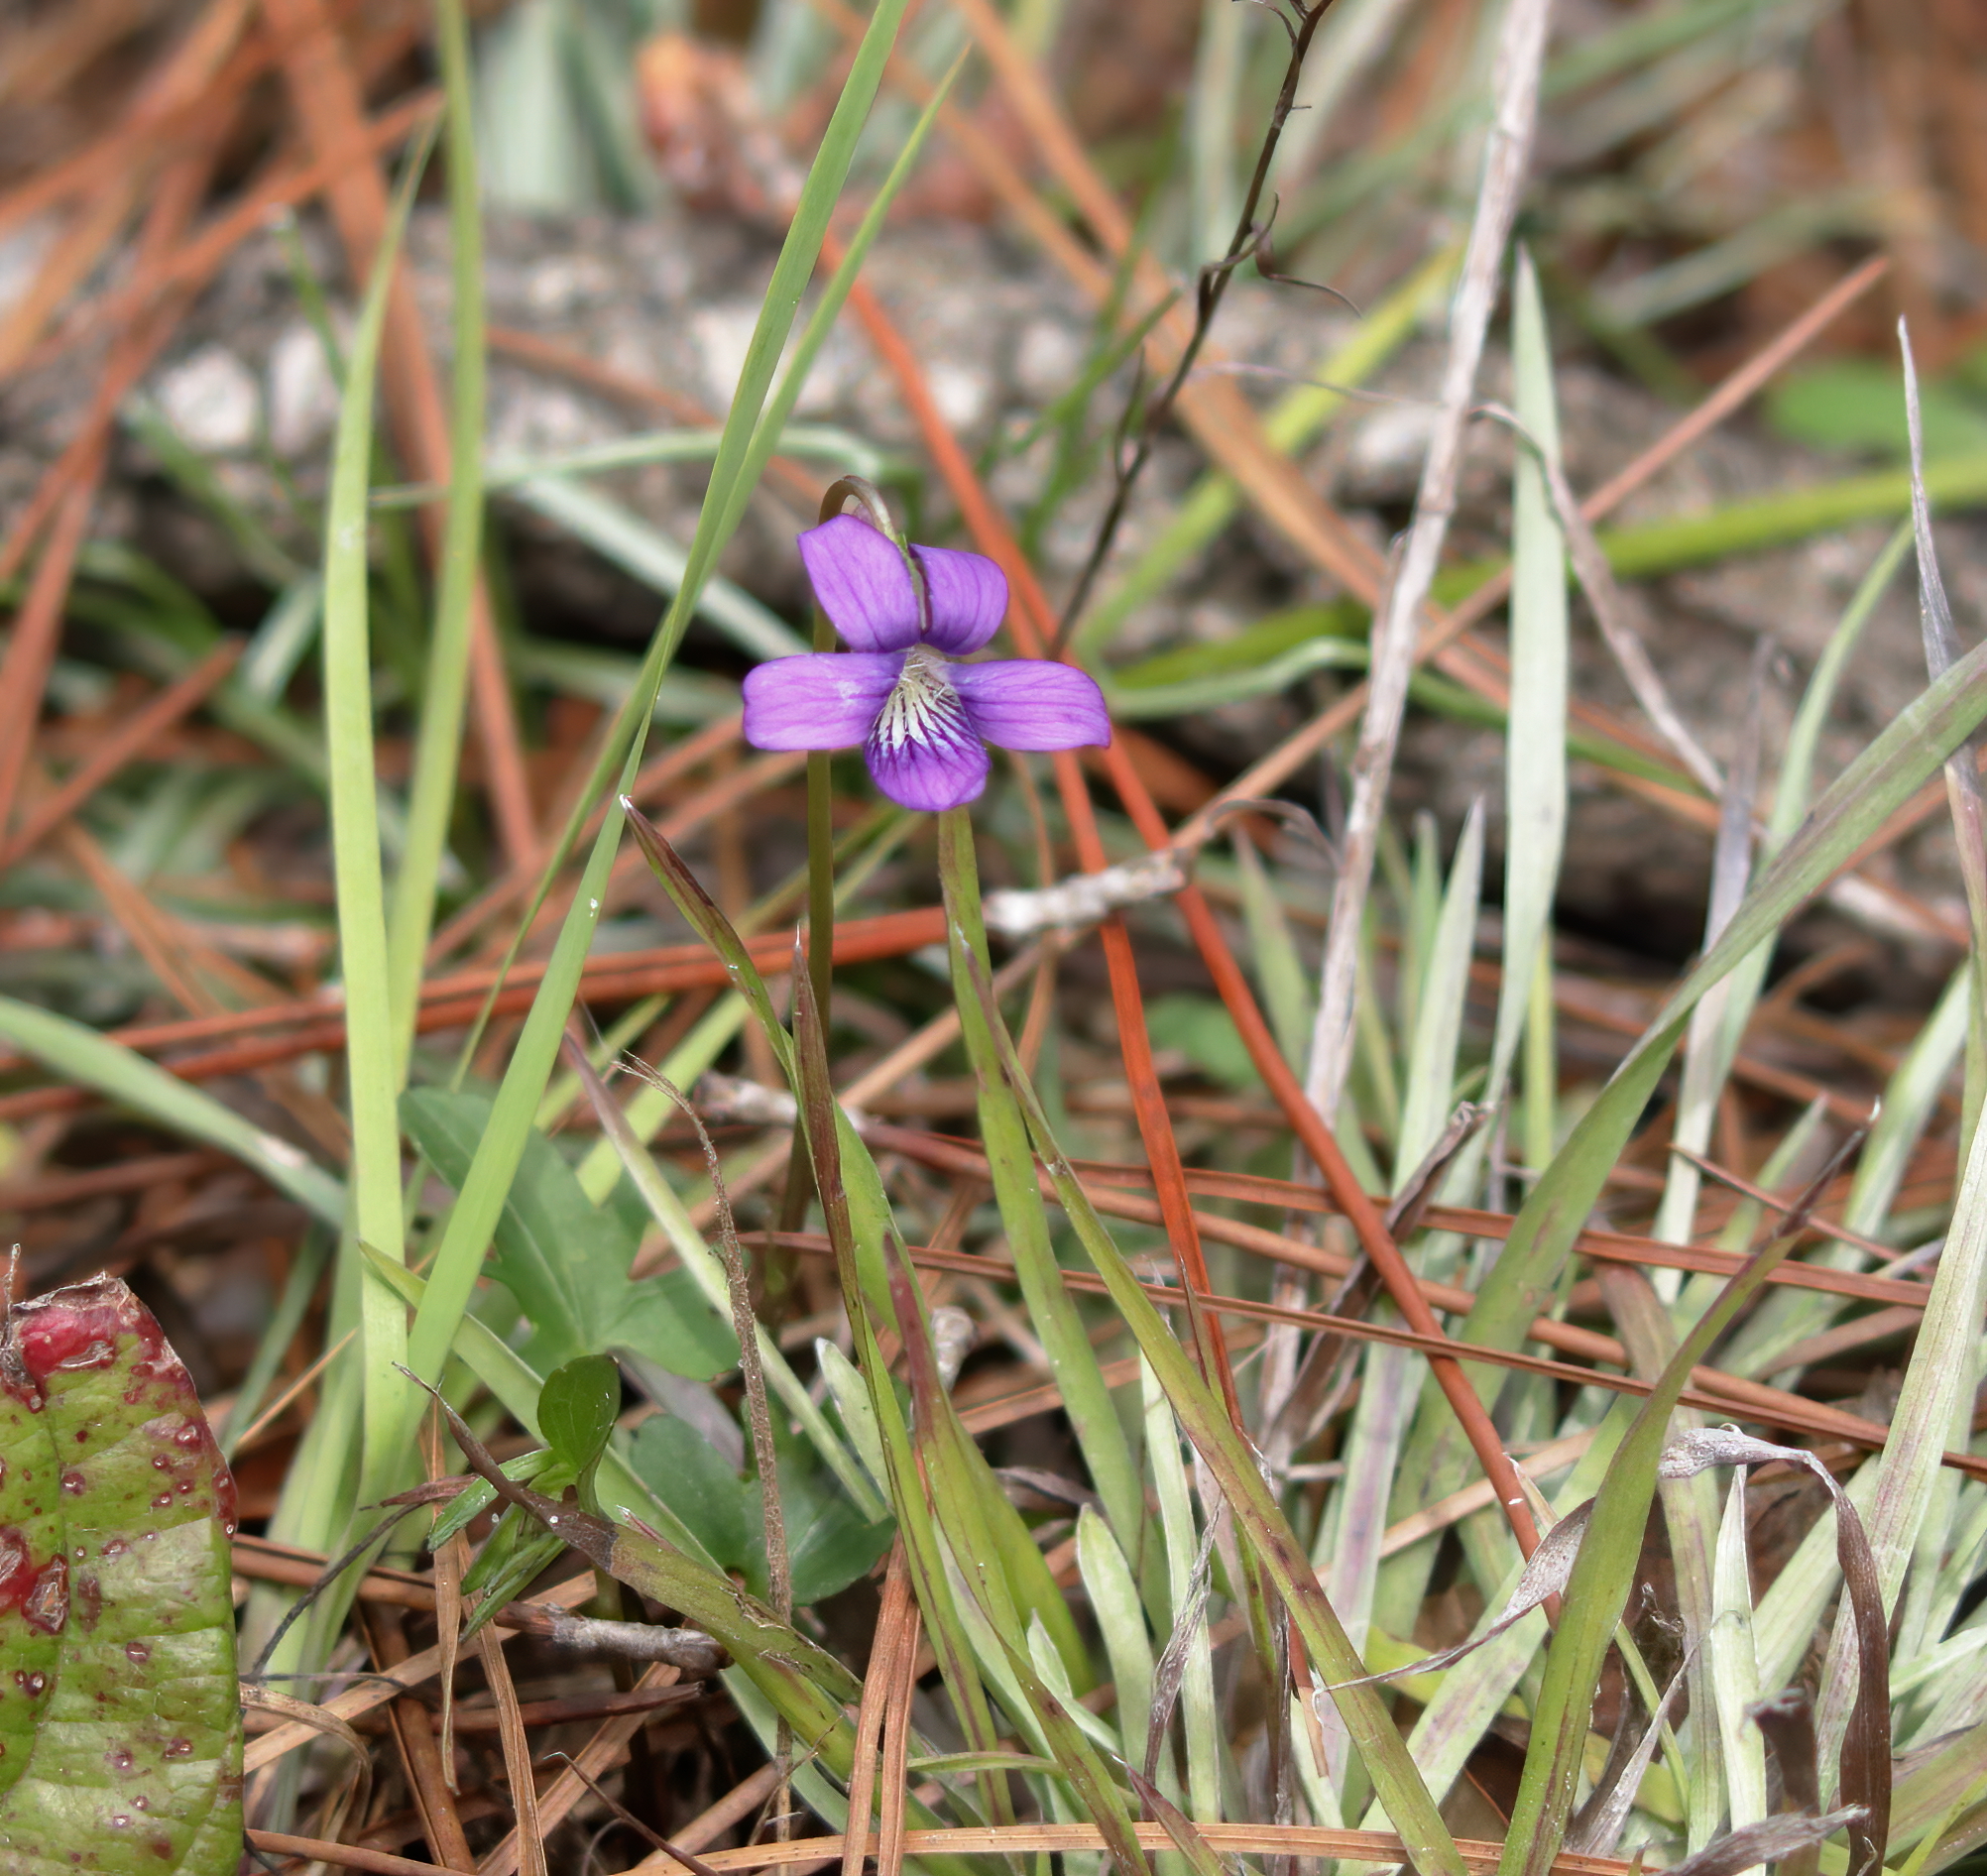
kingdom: Plantae
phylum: Tracheophyta
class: Magnoliopsida
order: Malpighiales
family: Violaceae
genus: Viola
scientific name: Viola septemloba
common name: Southern coast violet
